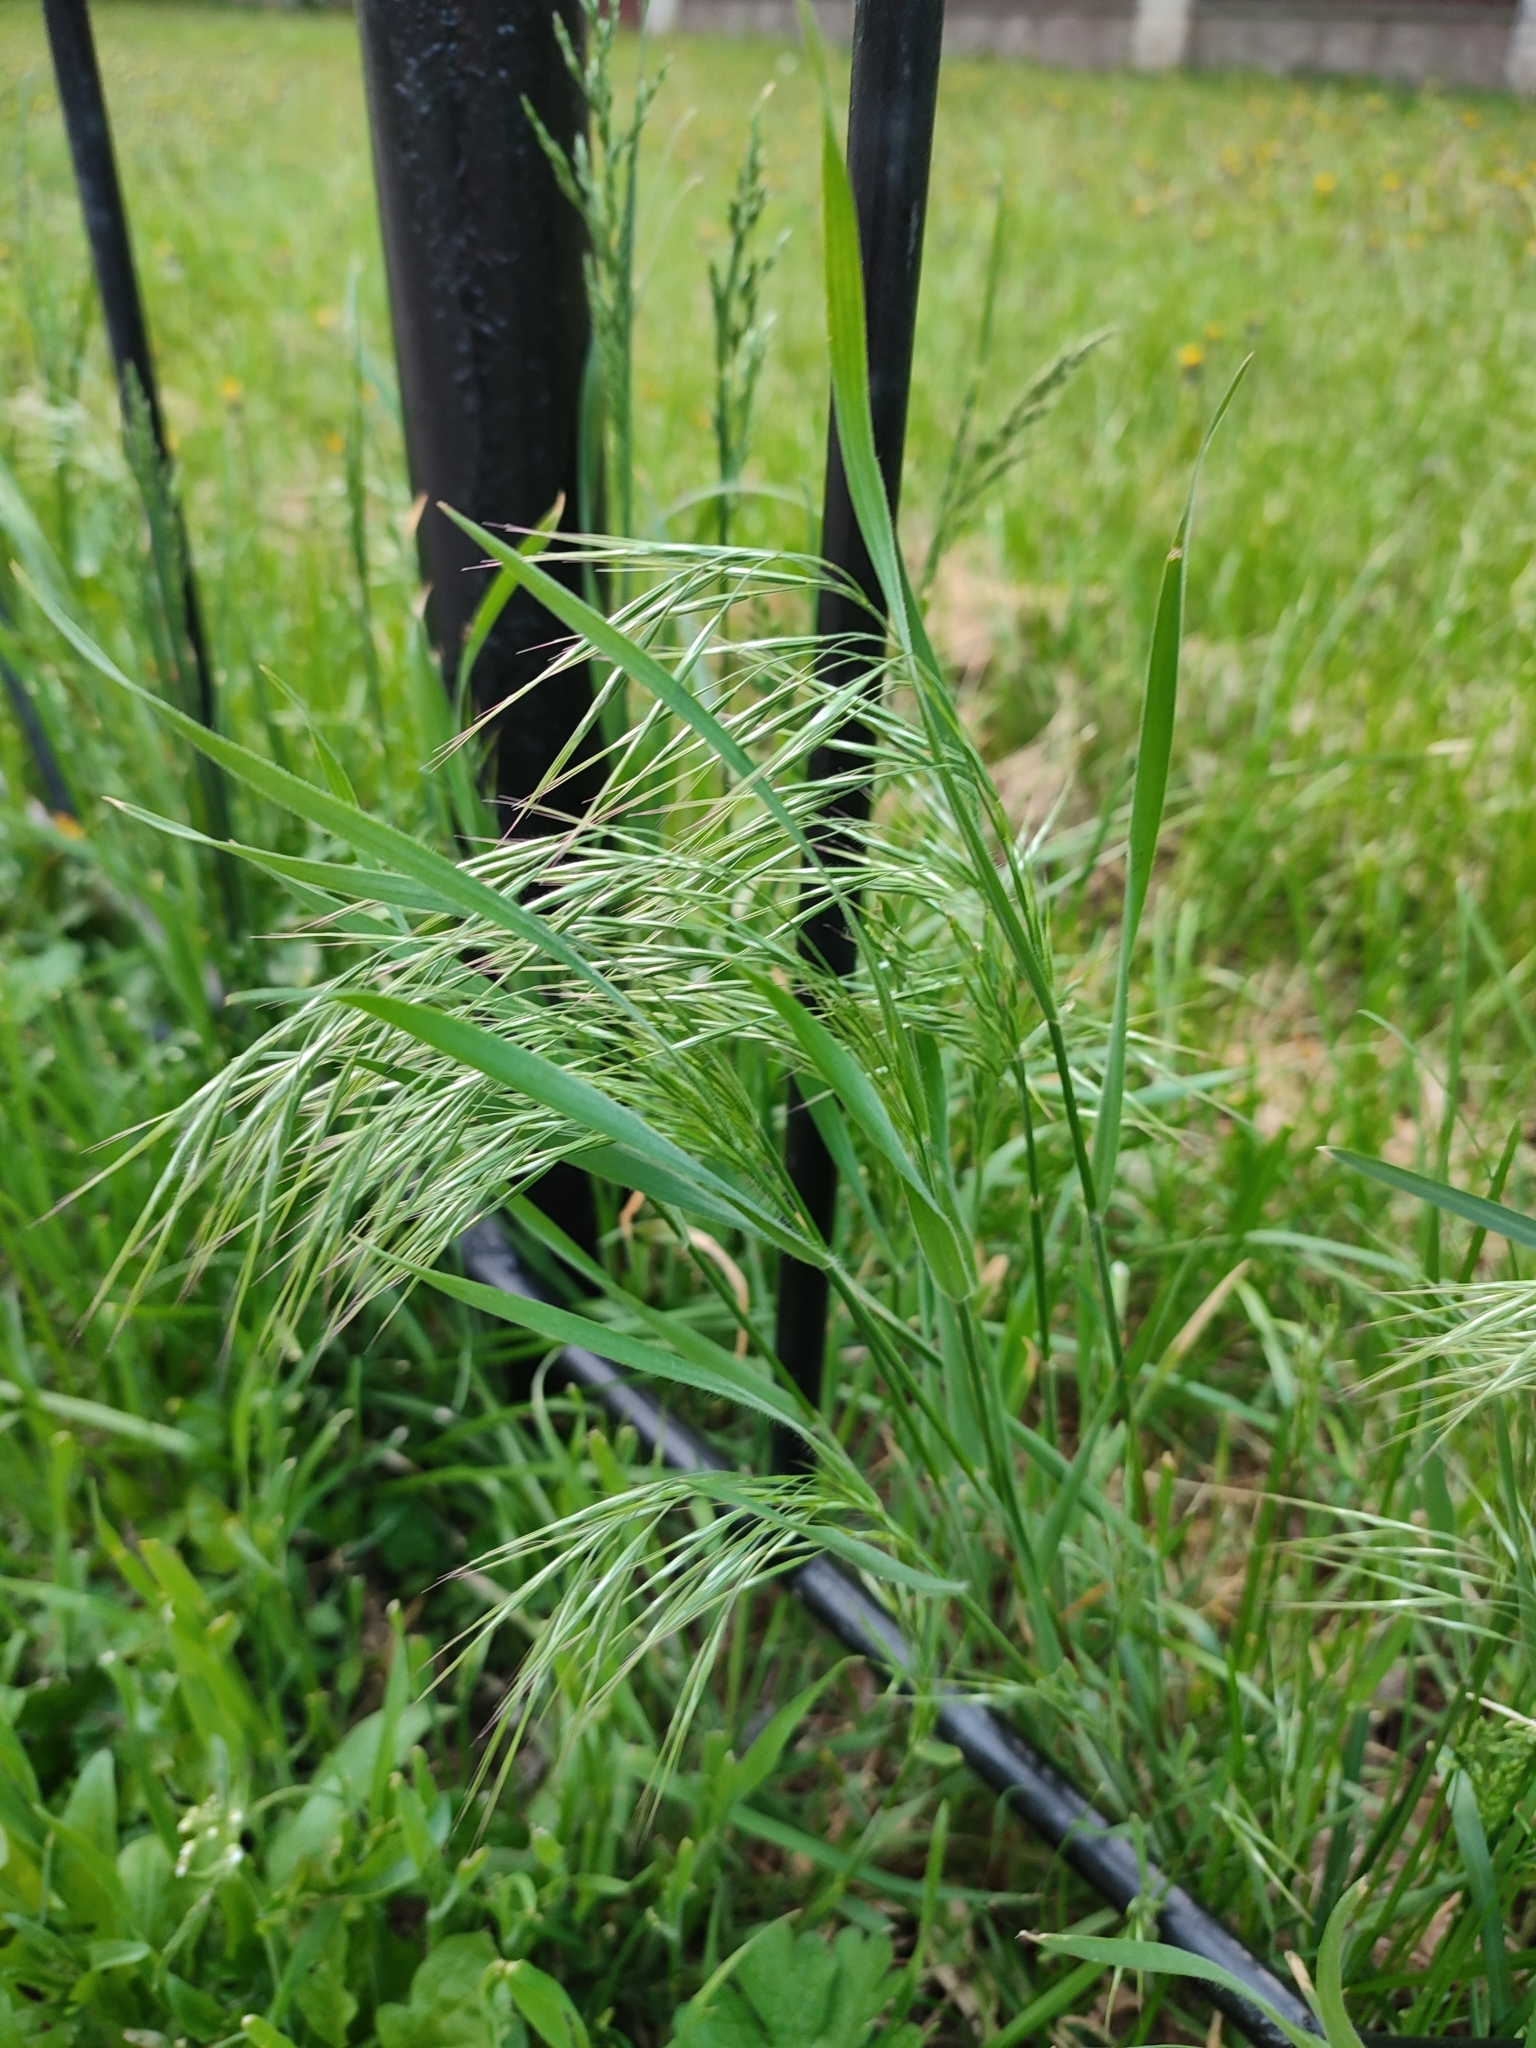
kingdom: Plantae
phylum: Tracheophyta
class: Liliopsida
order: Poales
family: Poaceae
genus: Bromus
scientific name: Bromus tectorum
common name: Cheatgrass
